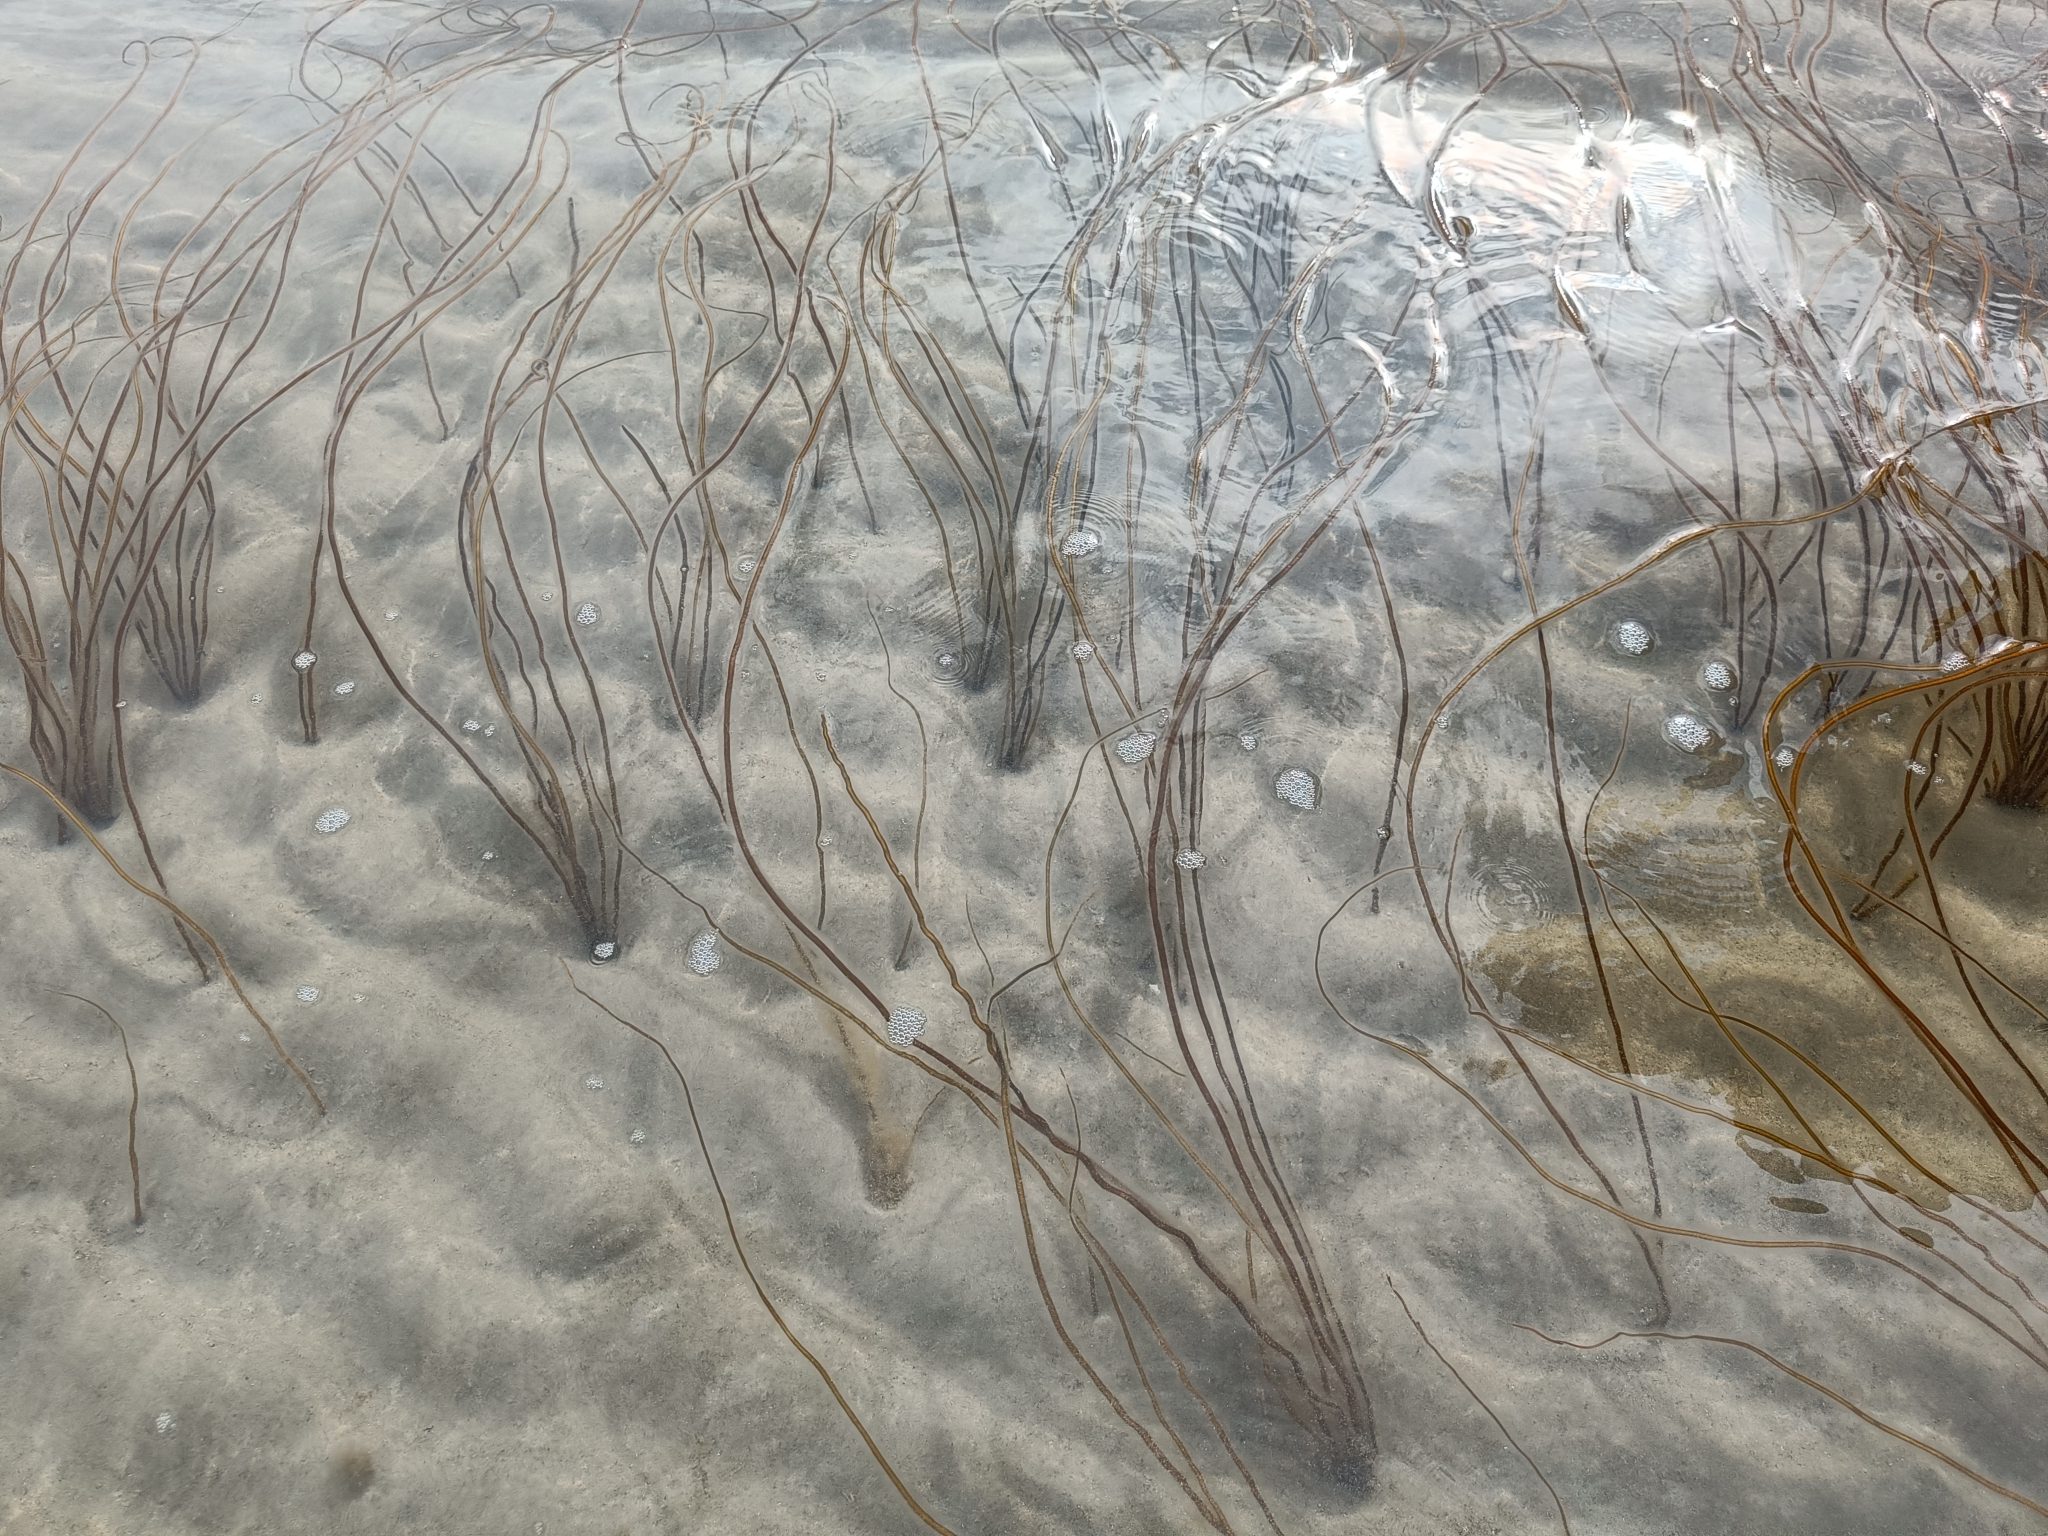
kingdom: Chromista
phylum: Ochrophyta
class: Phaeophyceae
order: Laminariales
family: Chordaceae
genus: Chorda
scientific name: Chorda filum
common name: Mermaid's tresses
